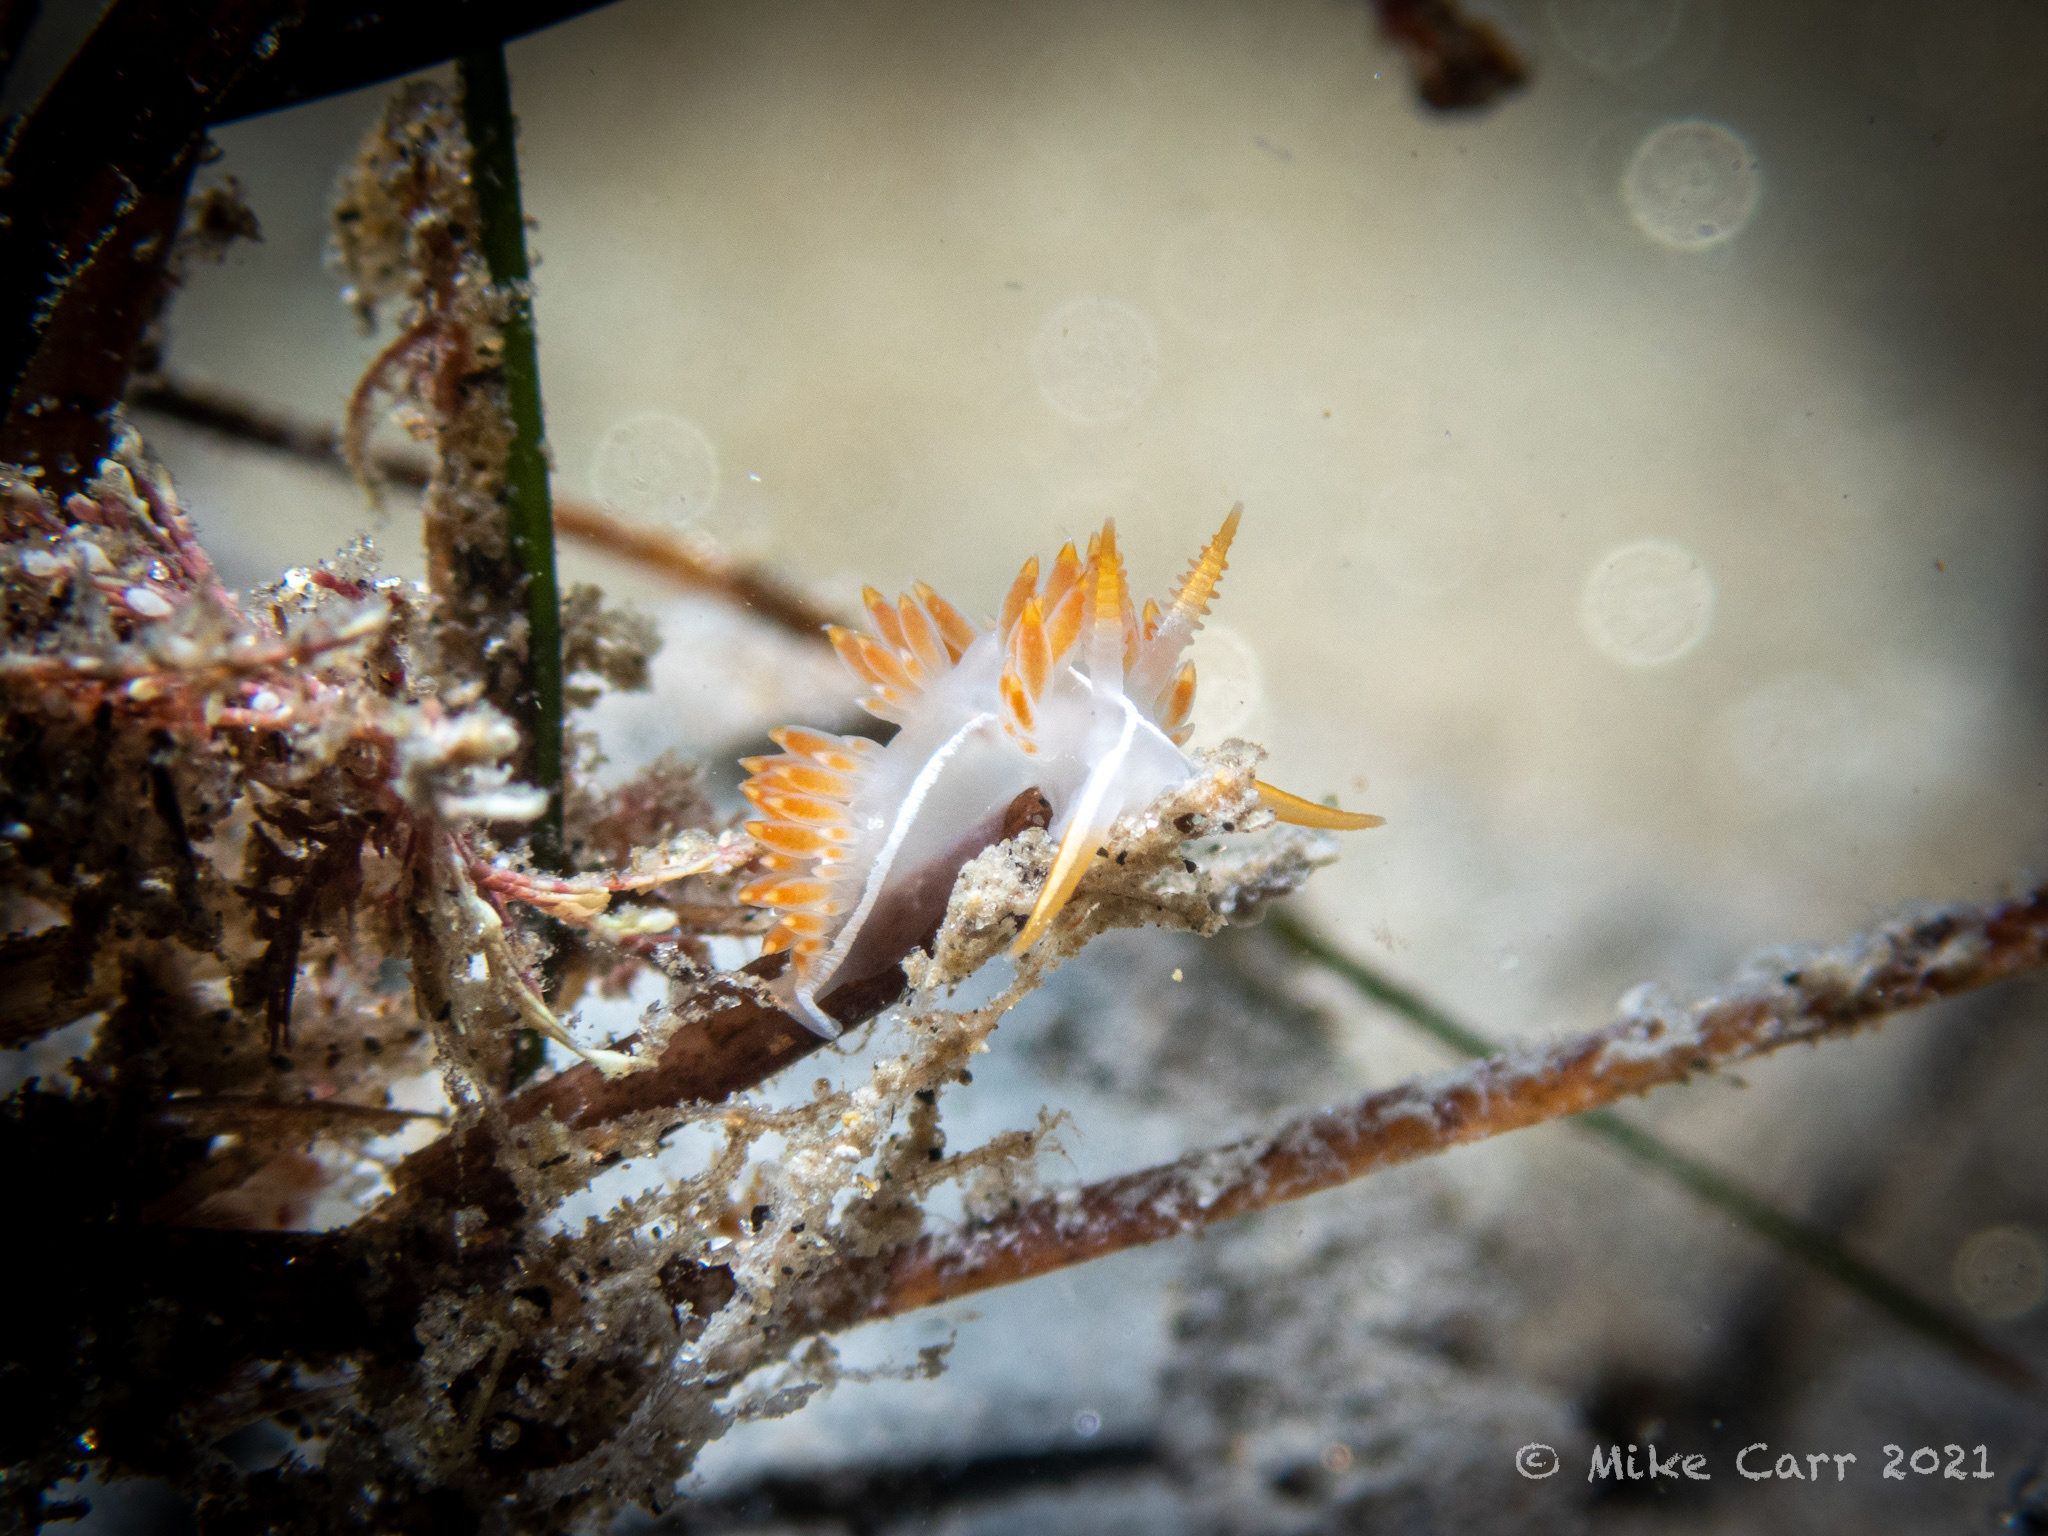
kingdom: Animalia
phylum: Mollusca
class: Gastropoda
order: Nudibranchia
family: Coryphellidae
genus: Coryphella
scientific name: Coryphella trilineata
